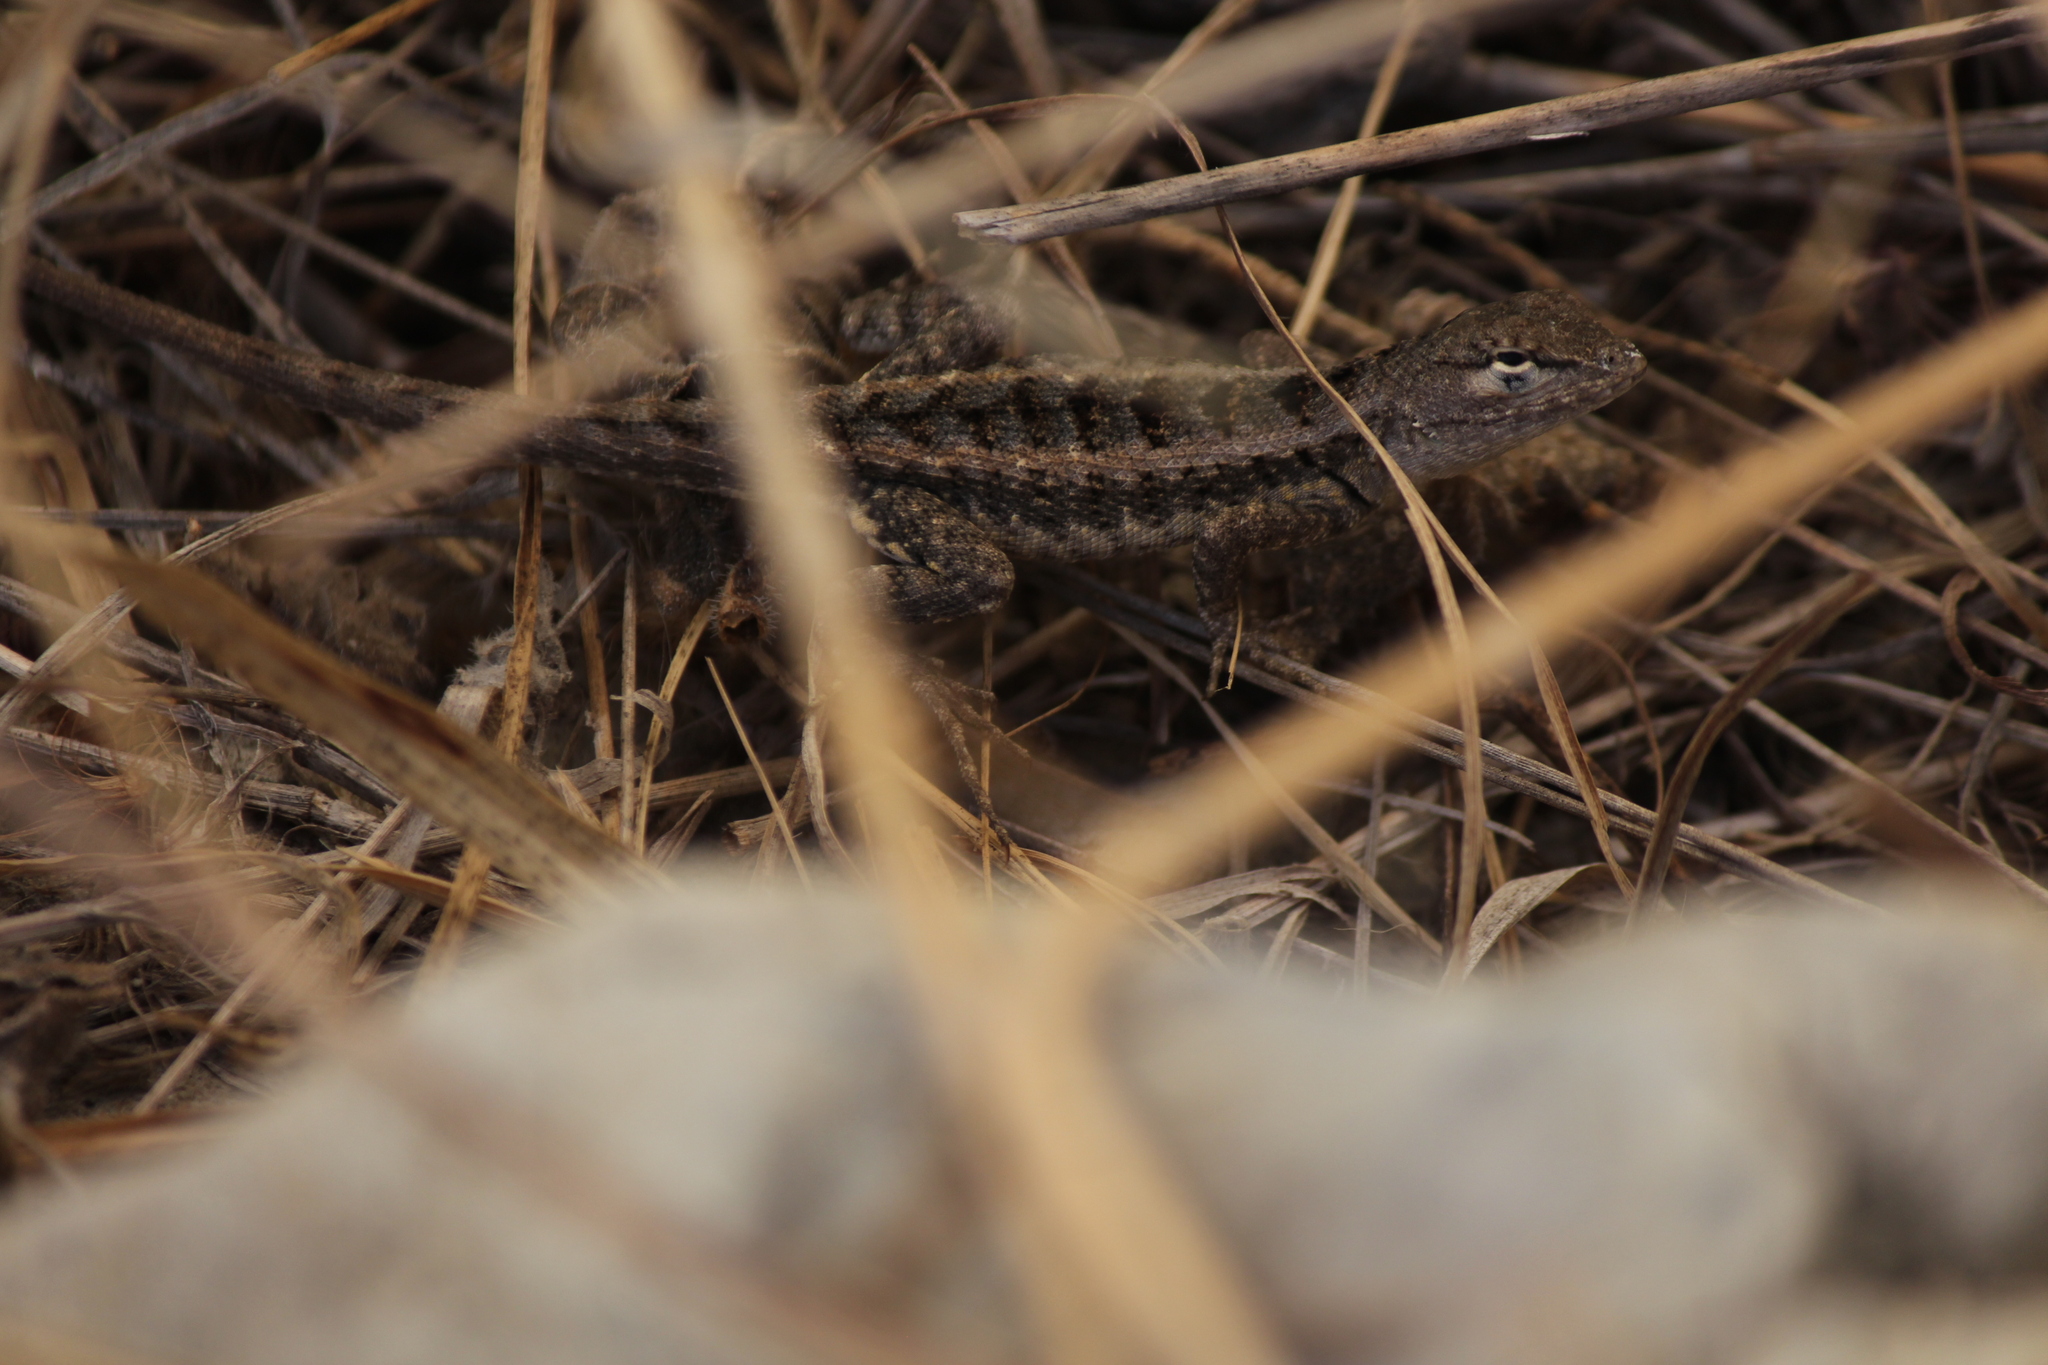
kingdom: Animalia
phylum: Chordata
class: Squamata
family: Tropiduridae
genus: Microlophus
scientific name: Microlophus occipitalis
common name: Knobbed pacific iguana
